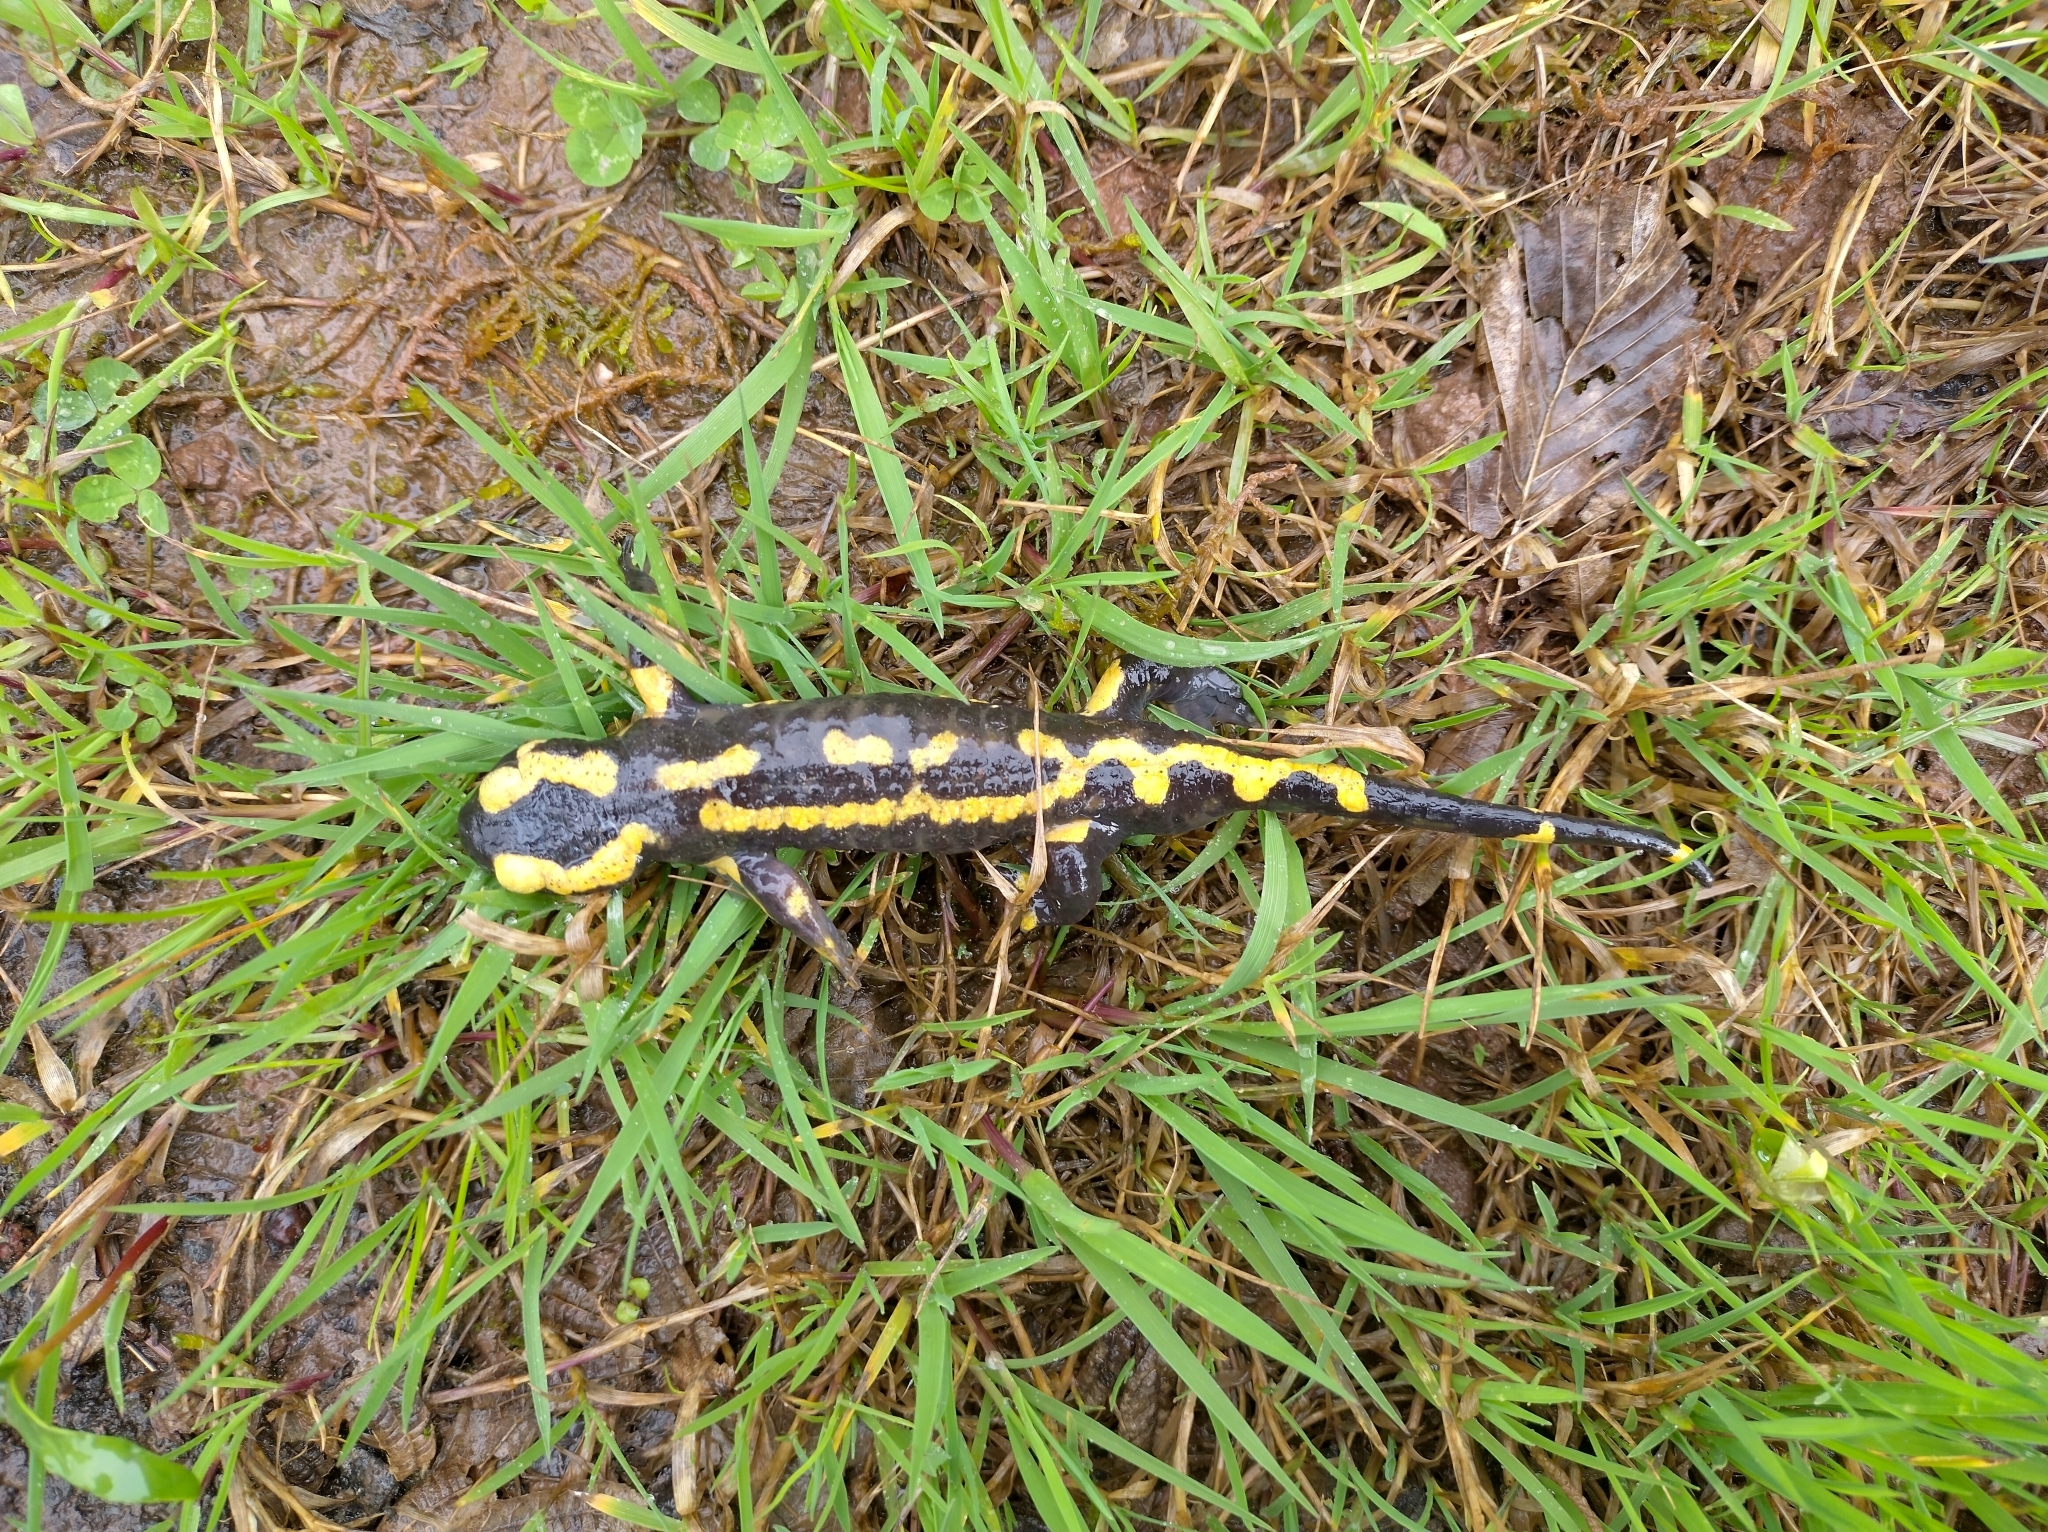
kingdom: Animalia
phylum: Chordata
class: Amphibia
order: Caudata
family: Salamandridae
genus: Salamandra
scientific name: Salamandra salamandra
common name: Fire salamander
